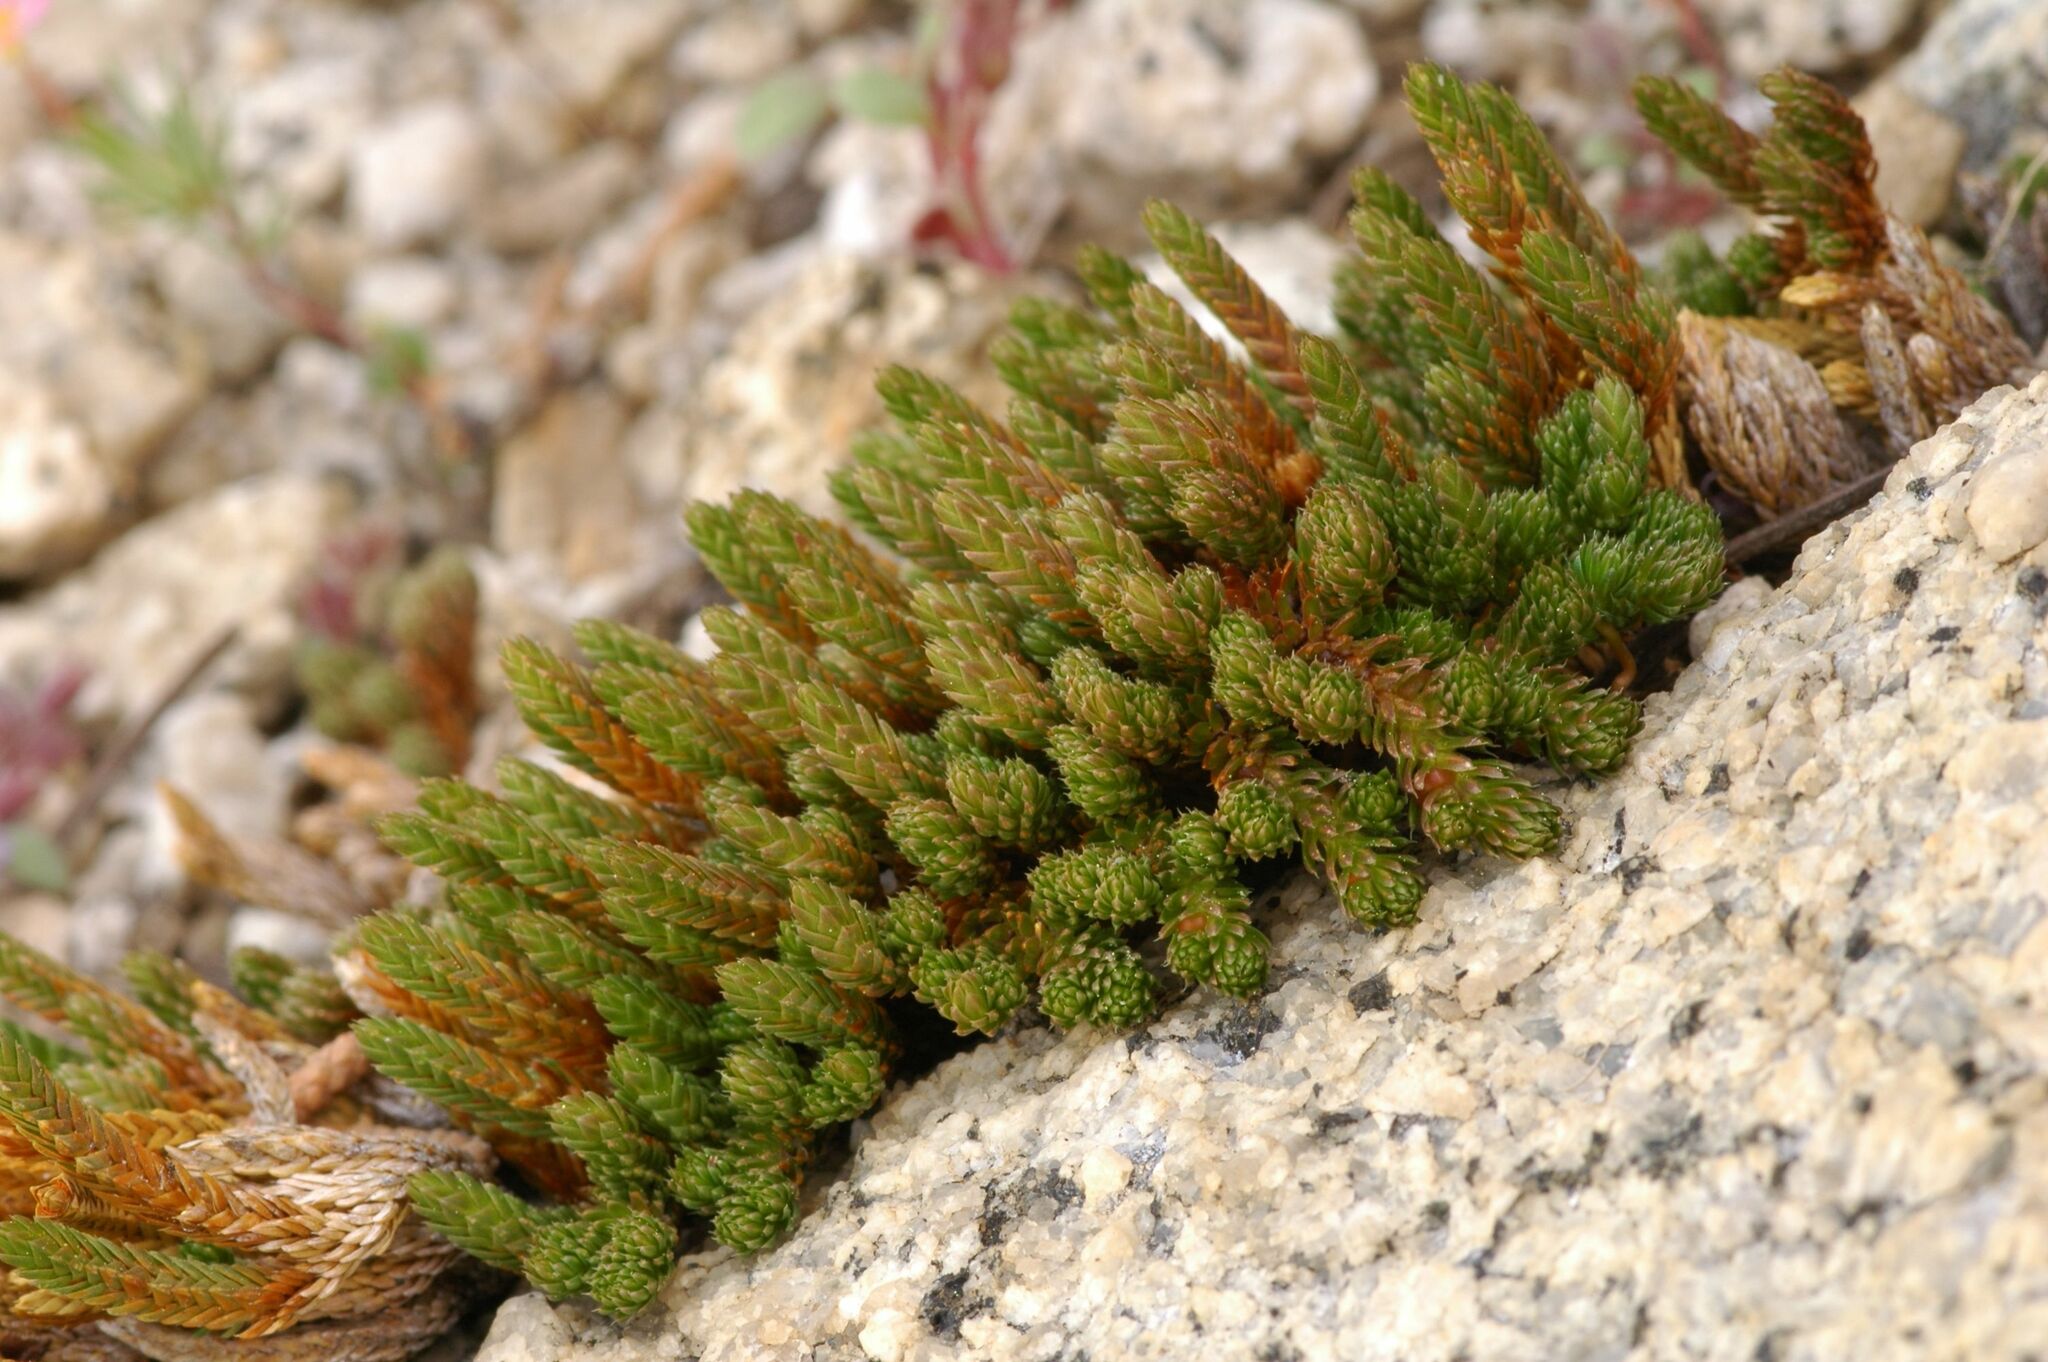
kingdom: Plantae
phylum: Tracheophyta
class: Lycopodiopsida
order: Selaginellales
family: Selaginellaceae
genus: Selaginella
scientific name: Selaginella watsonii
